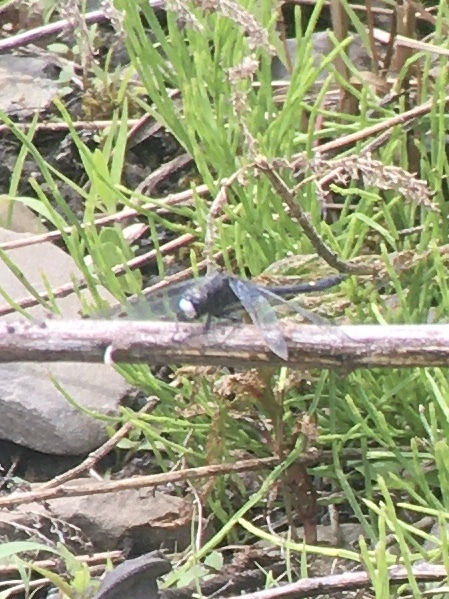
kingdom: Animalia
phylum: Arthropoda
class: Insecta
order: Odonata
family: Libellulidae
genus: Leucorrhinia
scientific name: Leucorrhinia intacta
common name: Dot-tailed whiteface
